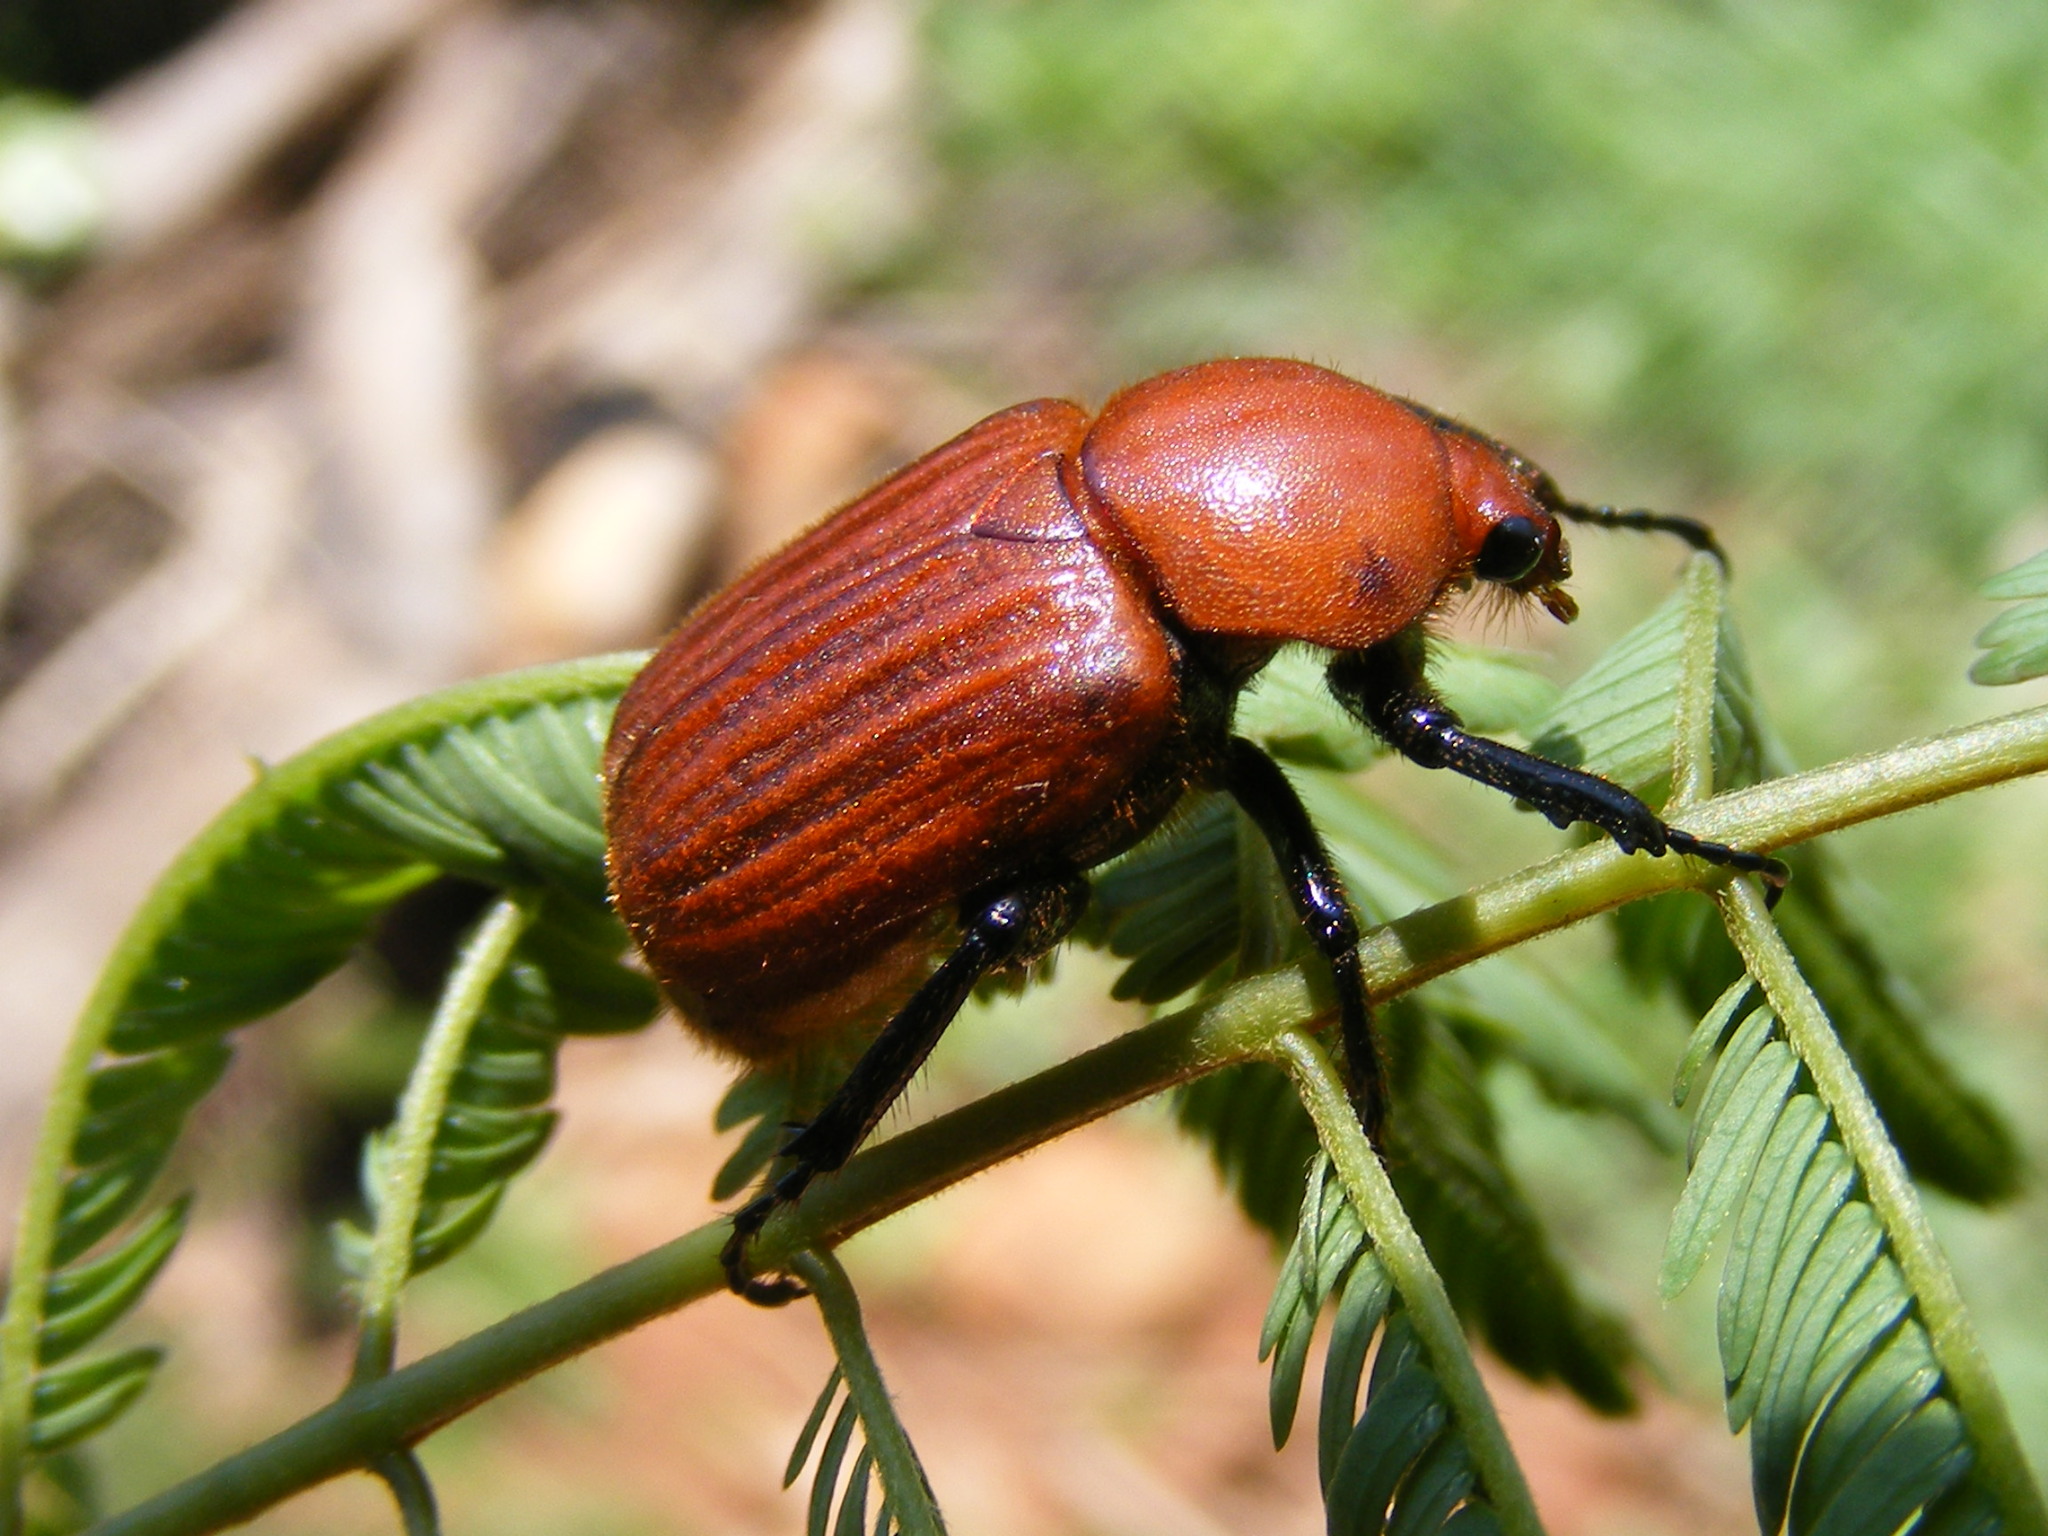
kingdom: Animalia
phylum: Arthropoda
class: Insecta
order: Coleoptera
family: Scarabaeidae
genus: Myodermum
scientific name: Myodermum rufum
